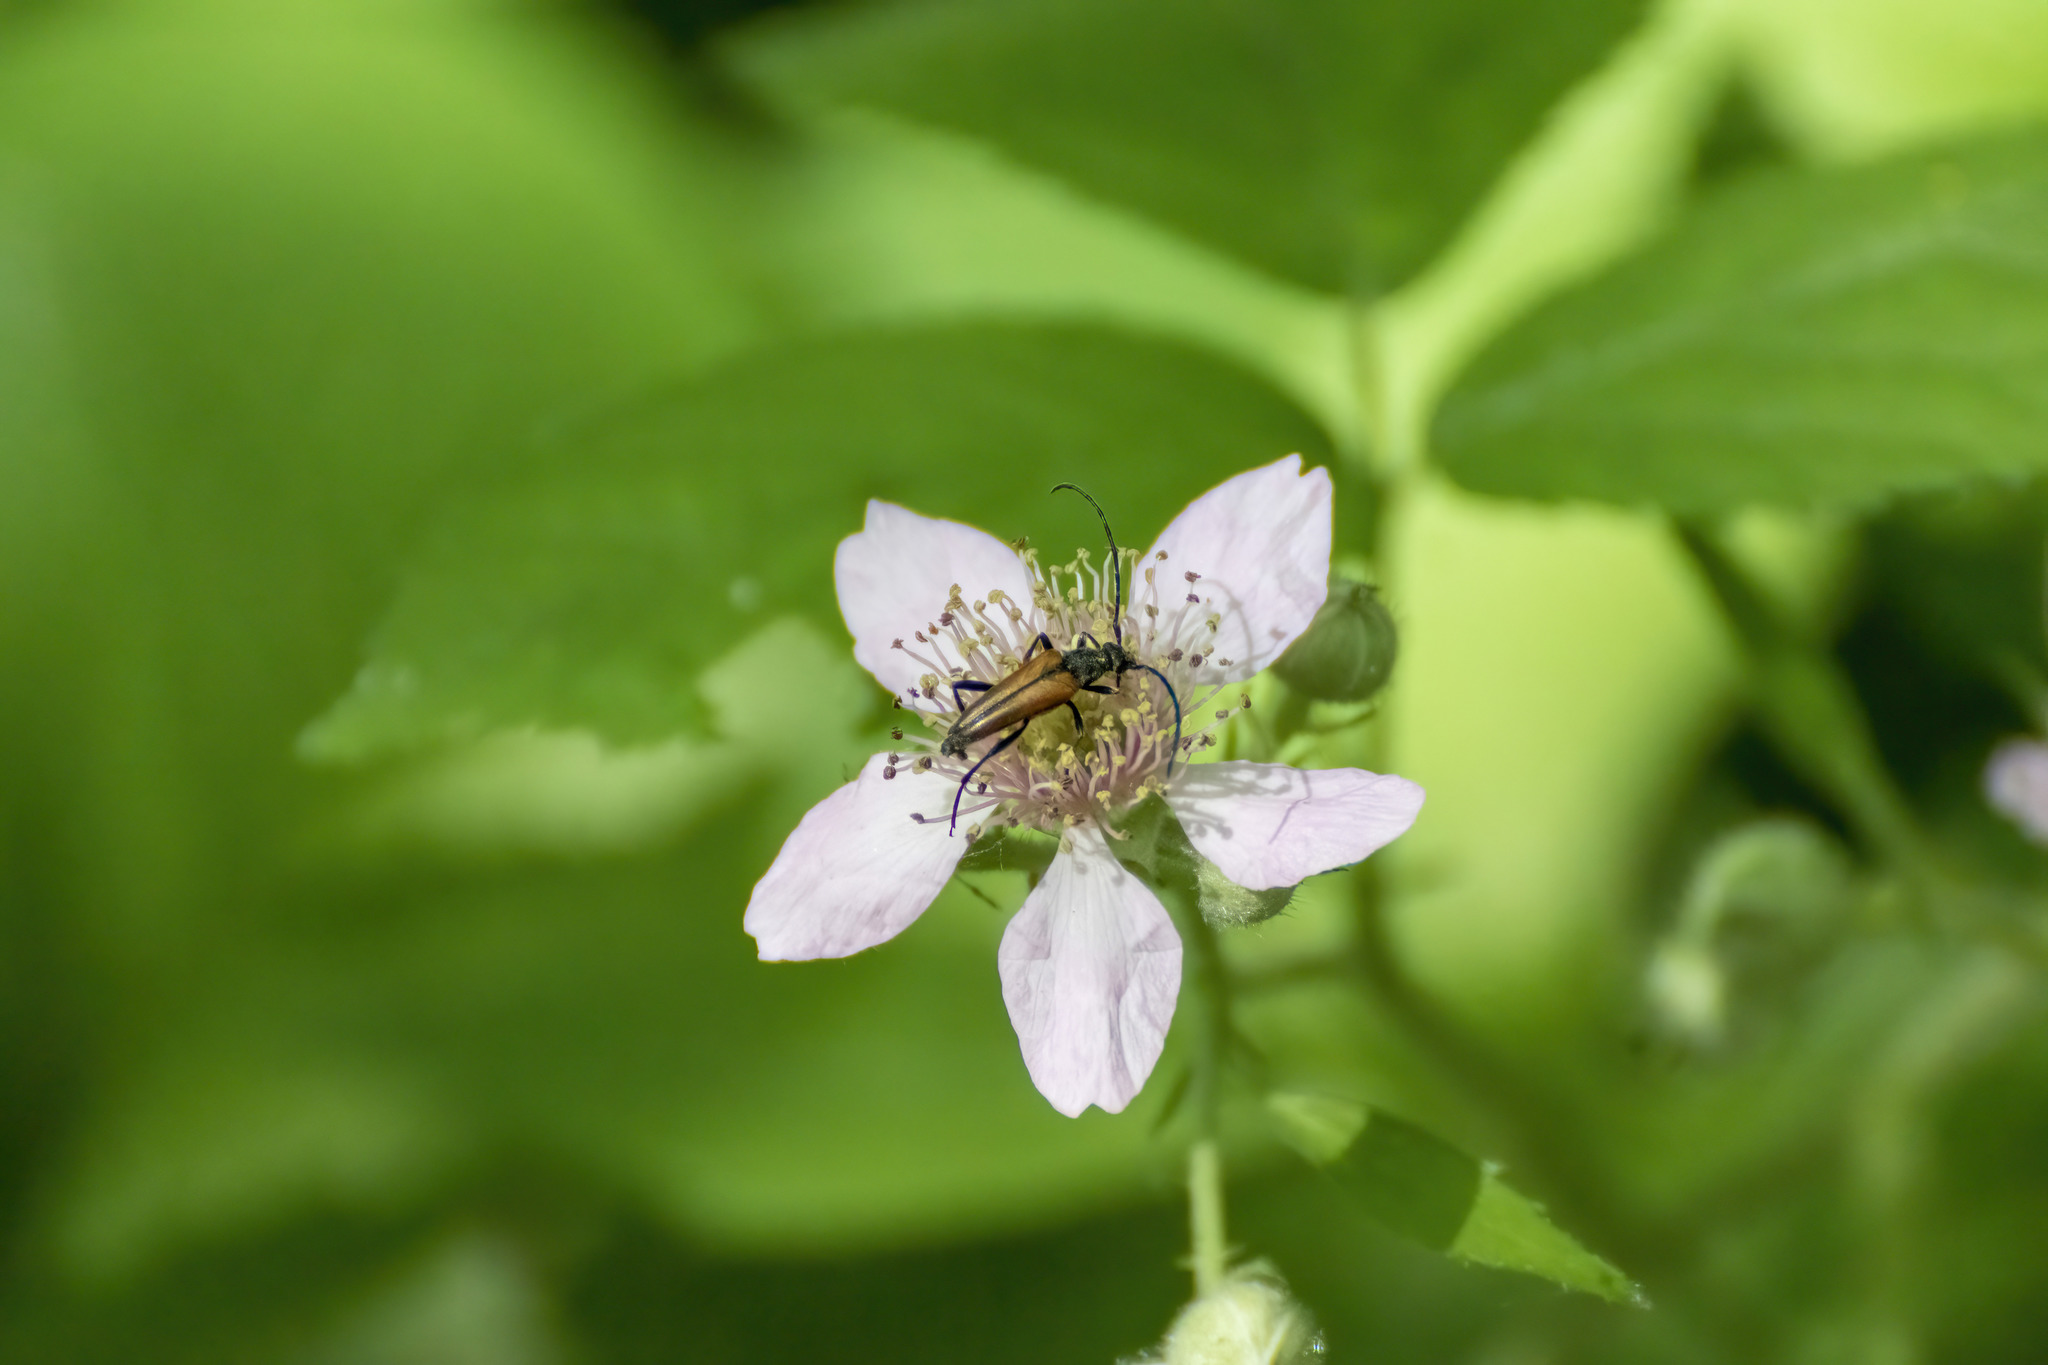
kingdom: Animalia
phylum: Arthropoda
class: Insecta
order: Coleoptera
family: Cerambycidae
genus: Stenurella
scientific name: Stenurella melanura
